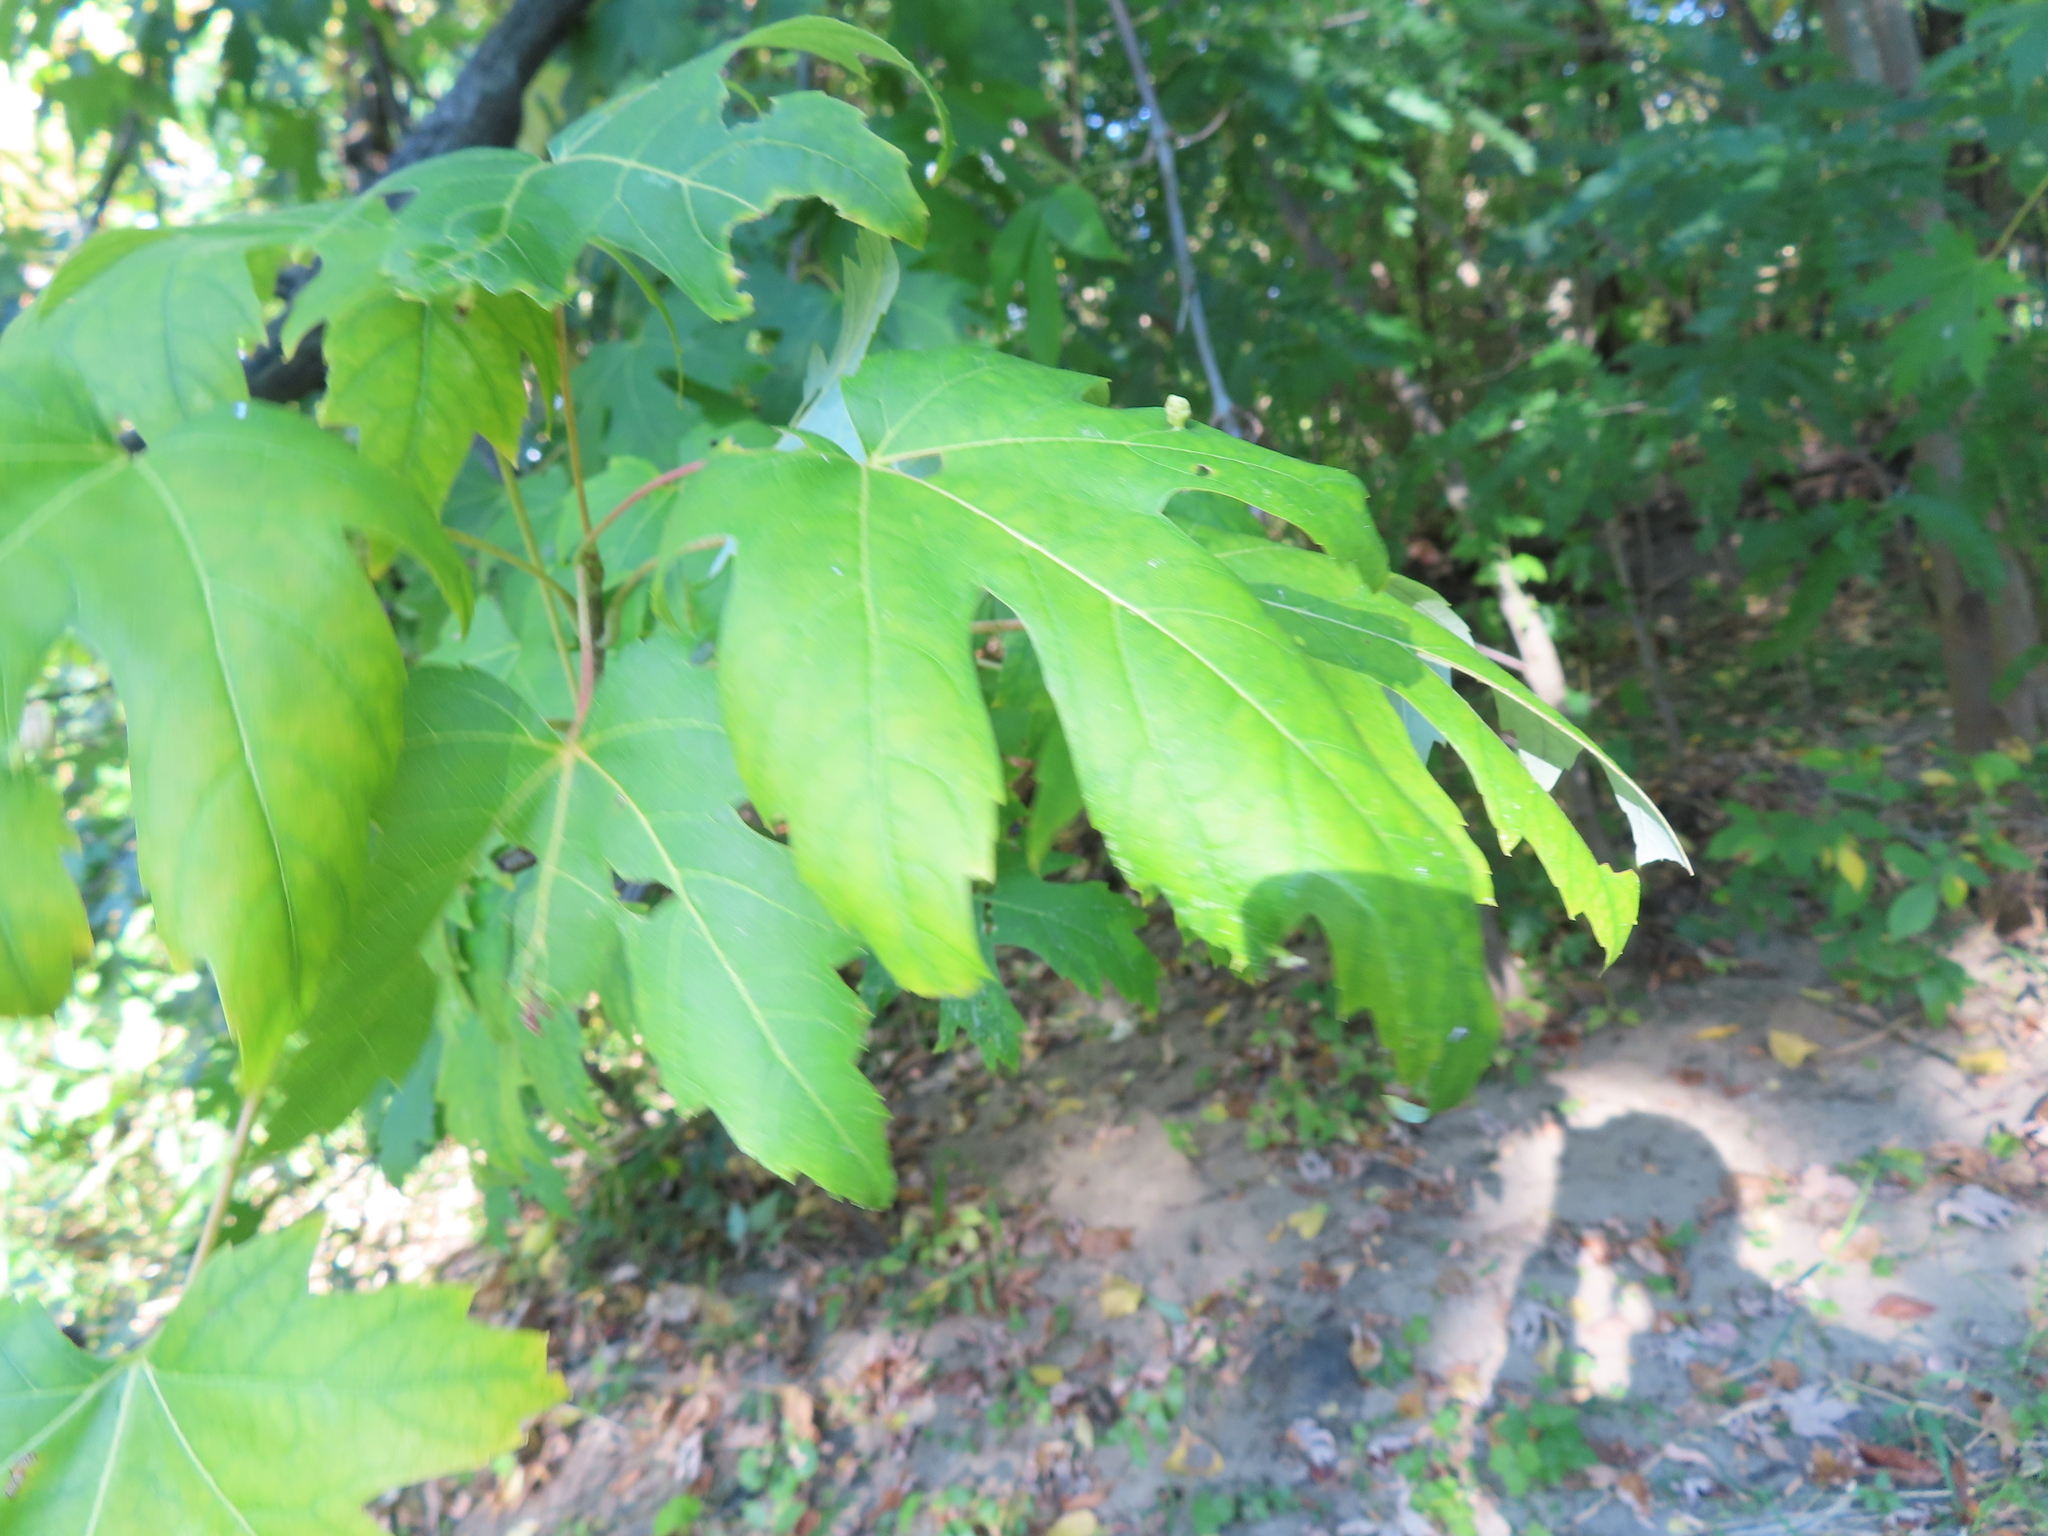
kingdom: Plantae
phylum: Tracheophyta
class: Magnoliopsida
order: Sapindales
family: Sapindaceae
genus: Acer
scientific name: Acer saccharinum
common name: Silver maple
